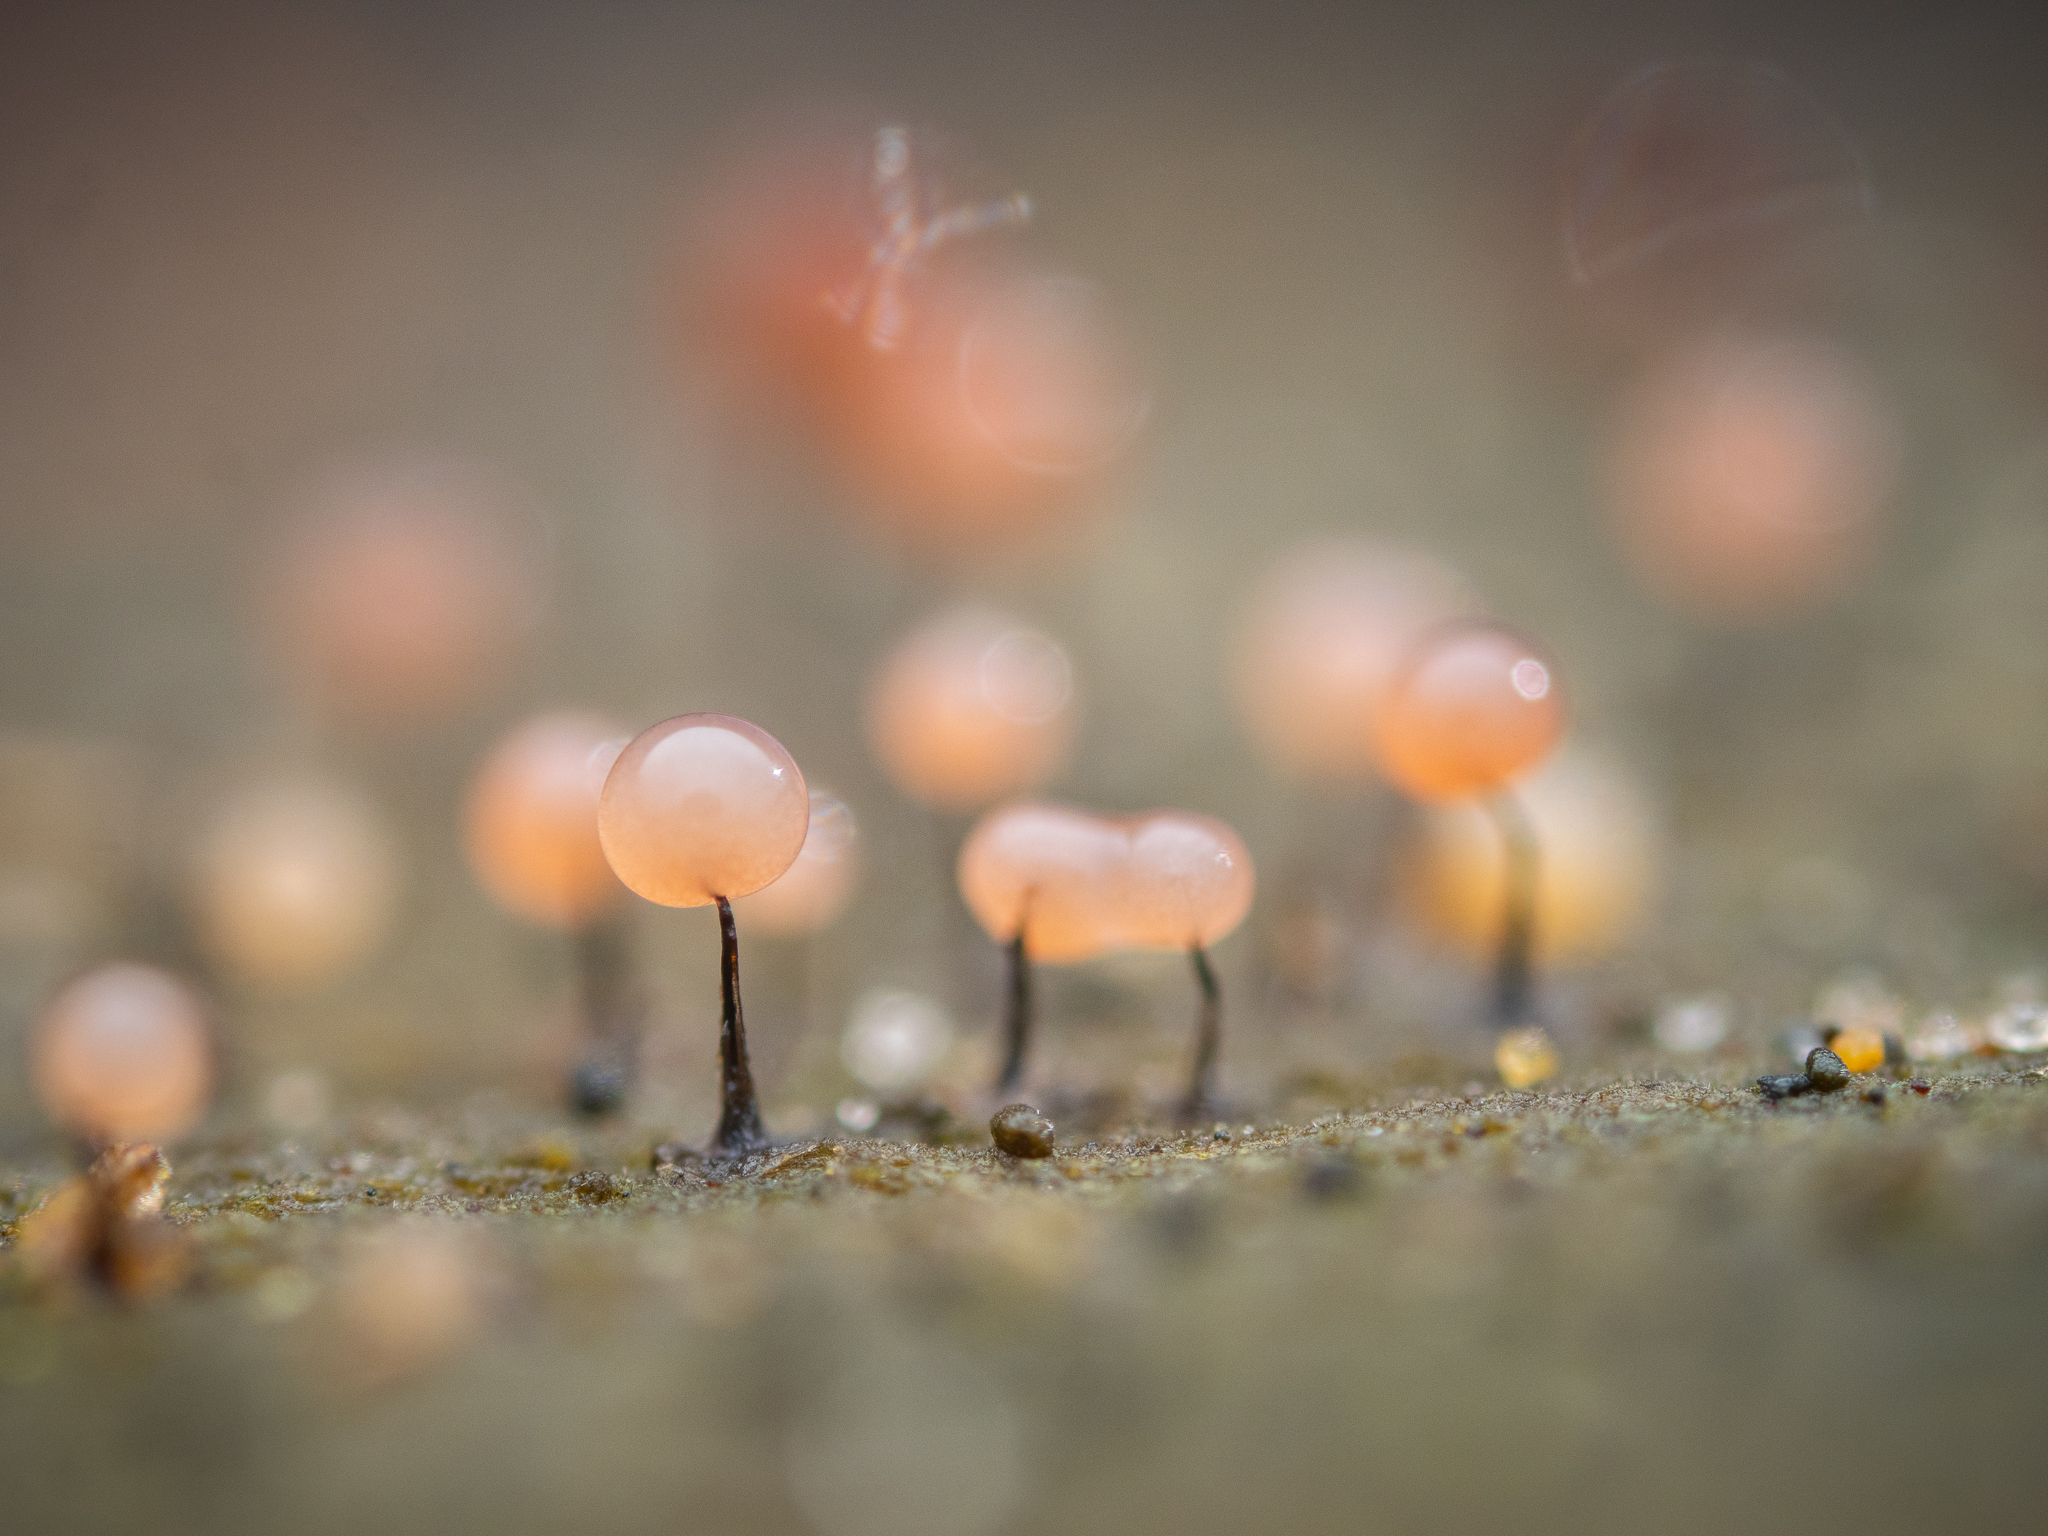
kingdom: Protozoa
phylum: Mycetozoa
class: Myxomycetes
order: Stemonitidales
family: Stemonitidaceae
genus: Comatricha
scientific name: Comatricha nigra
